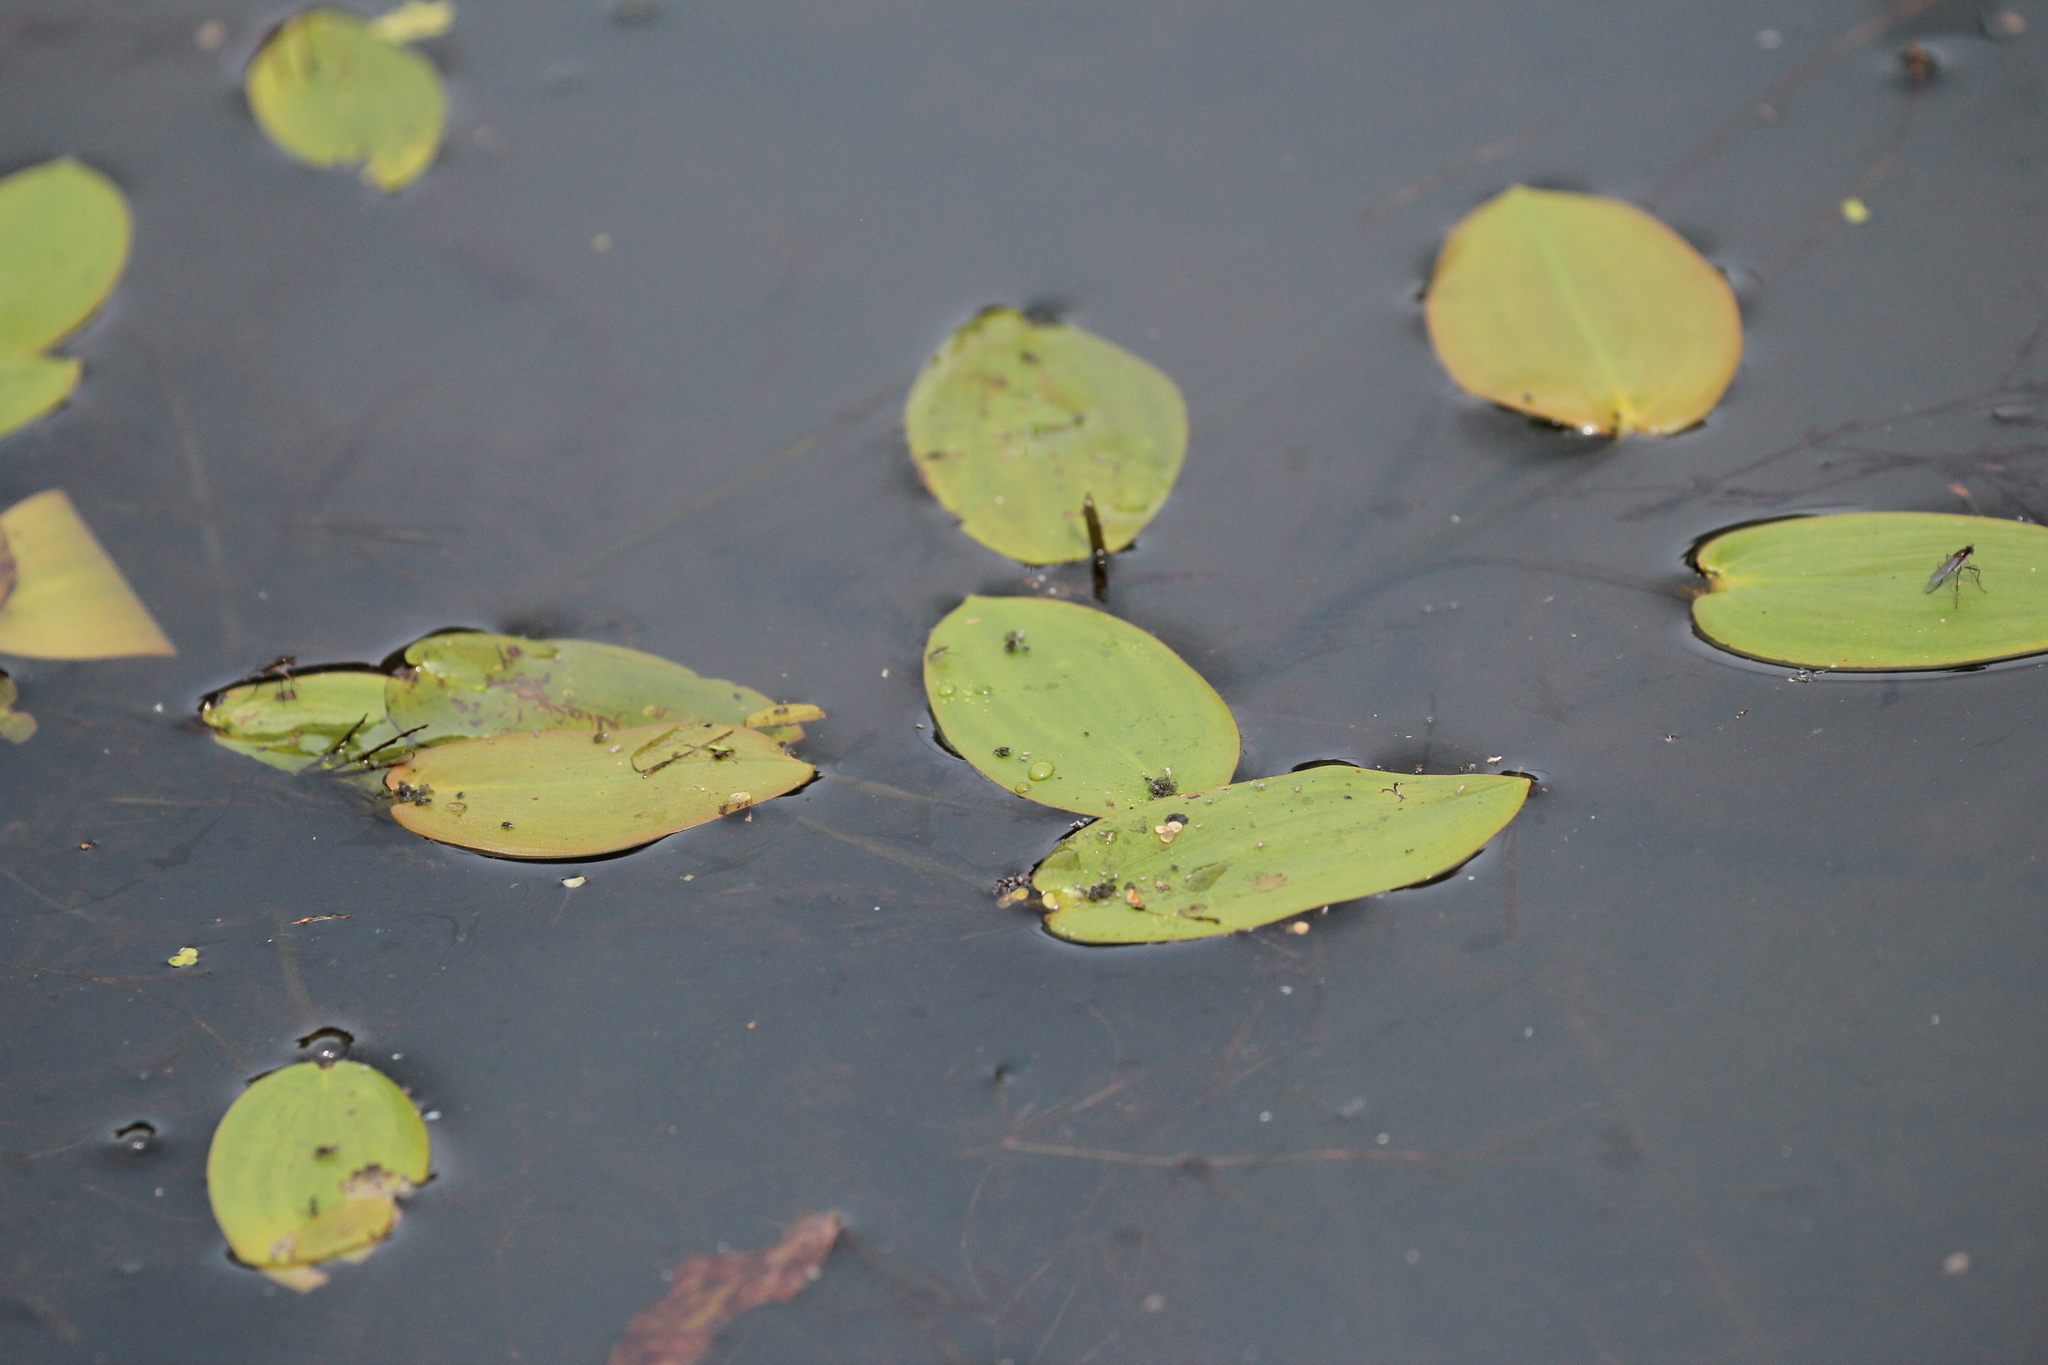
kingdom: Plantae
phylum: Tracheophyta
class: Liliopsida
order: Alismatales
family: Potamogetonaceae
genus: Potamogeton
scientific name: Potamogeton natans
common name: Broad-leaved pondweed
